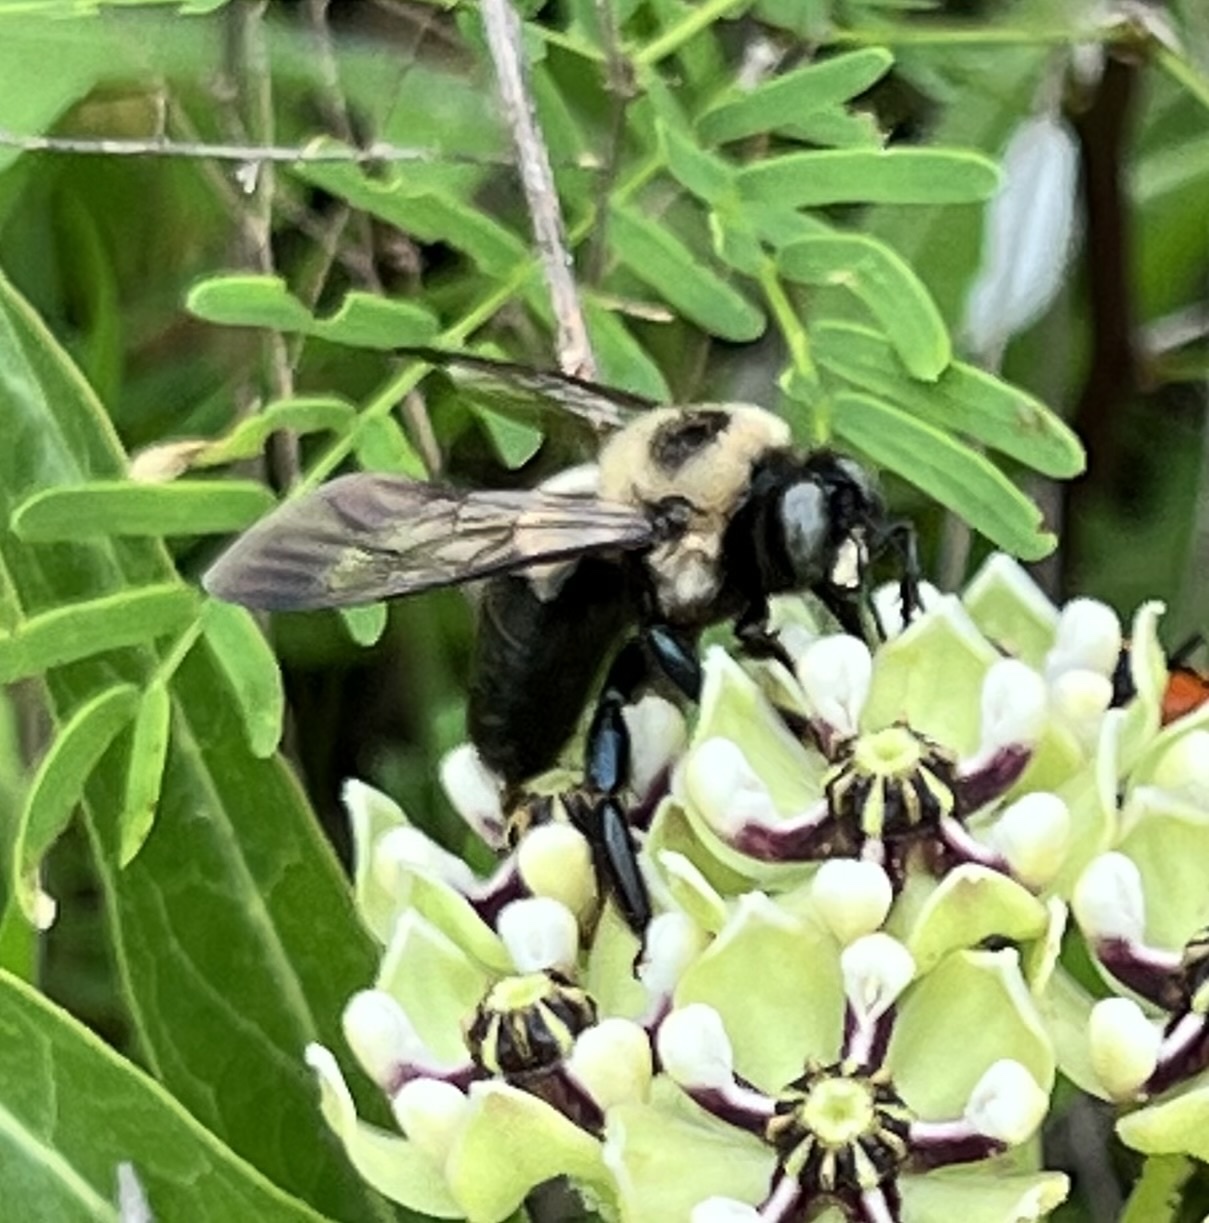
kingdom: Animalia
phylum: Arthropoda
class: Insecta
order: Hymenoptera
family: Apidae
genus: Xylocopa
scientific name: Xylocopa virginica
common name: Carpenter bee
